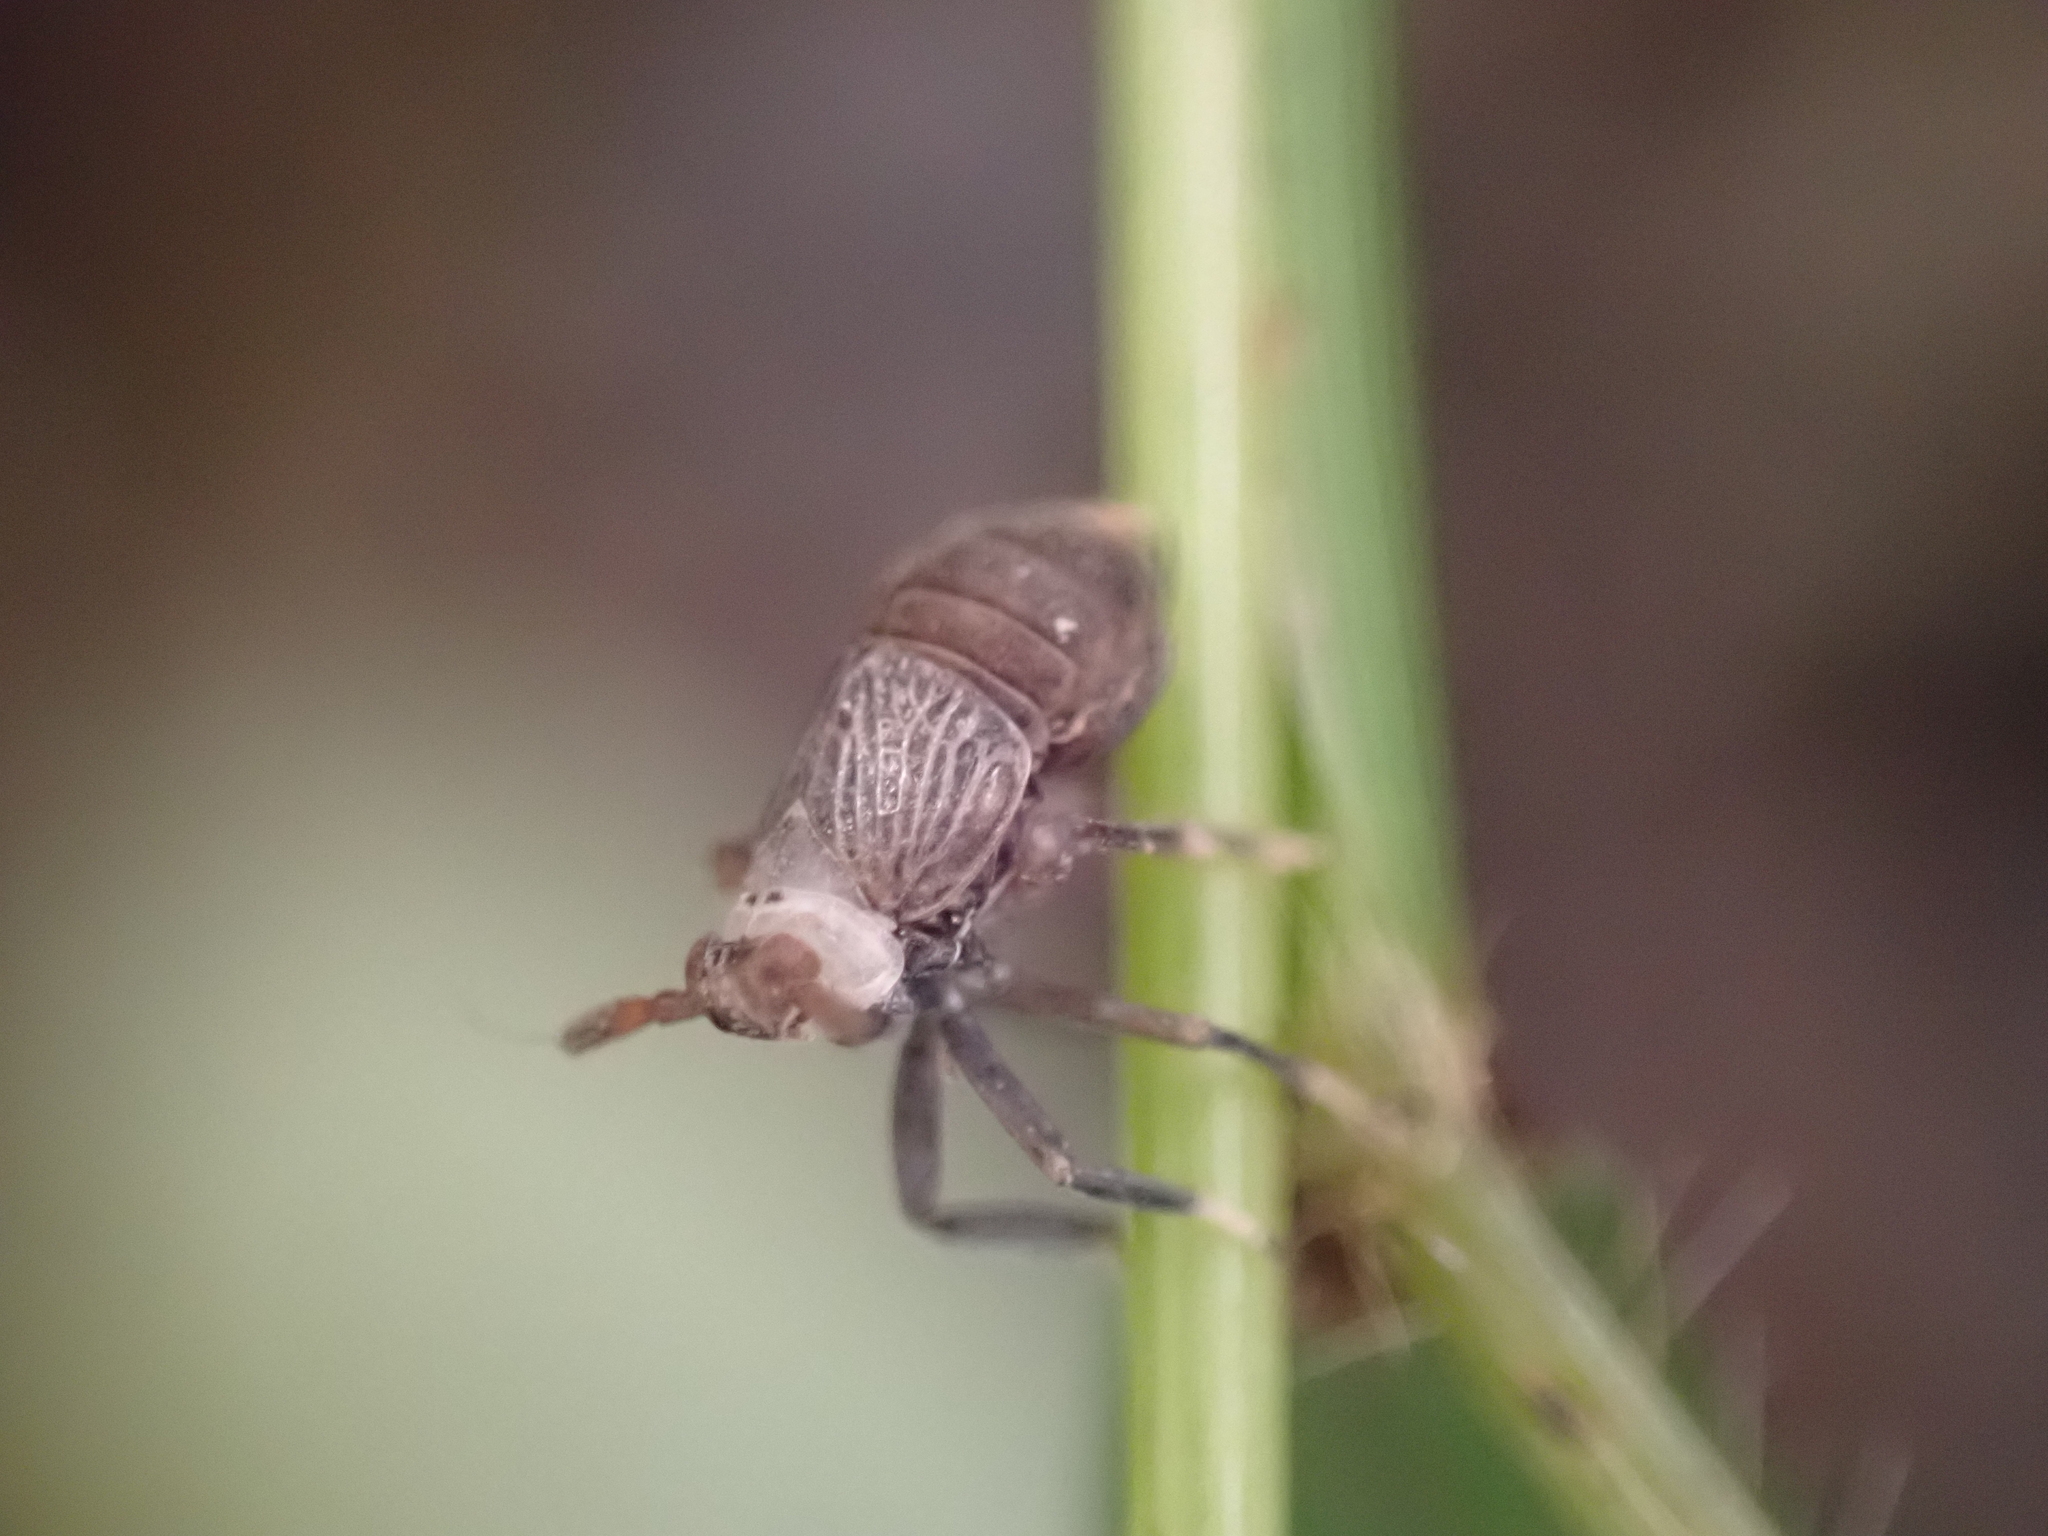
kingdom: Animalia
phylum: Arthropoda
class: Insecta
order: Hemiptera
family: Delphacidae
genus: Pissonotus
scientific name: Pissonotus aphidioides
